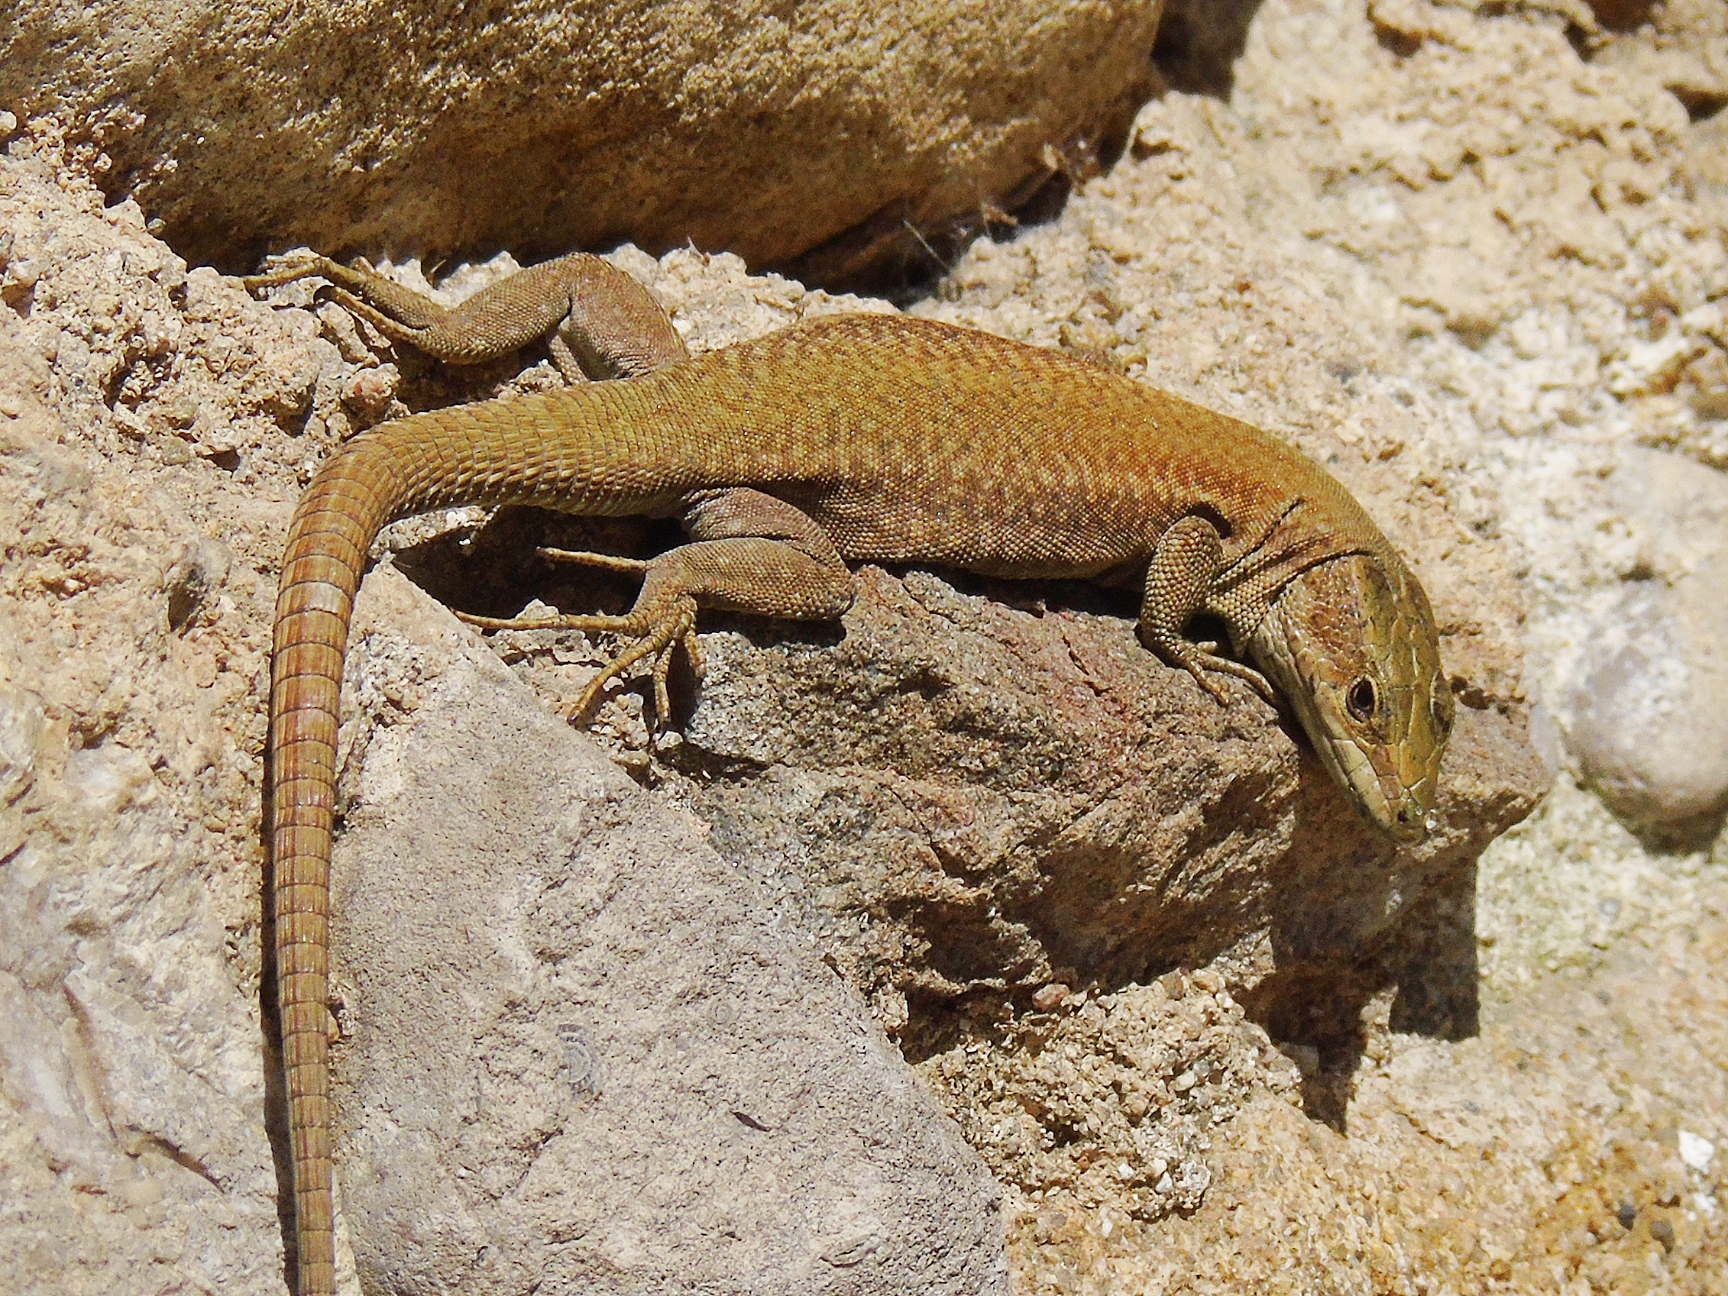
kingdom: Animalia
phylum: Chordata
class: Squamata
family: Lacertidae
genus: Podarcis
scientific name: Podarcis liolepis
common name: Catalonian wall lizard
